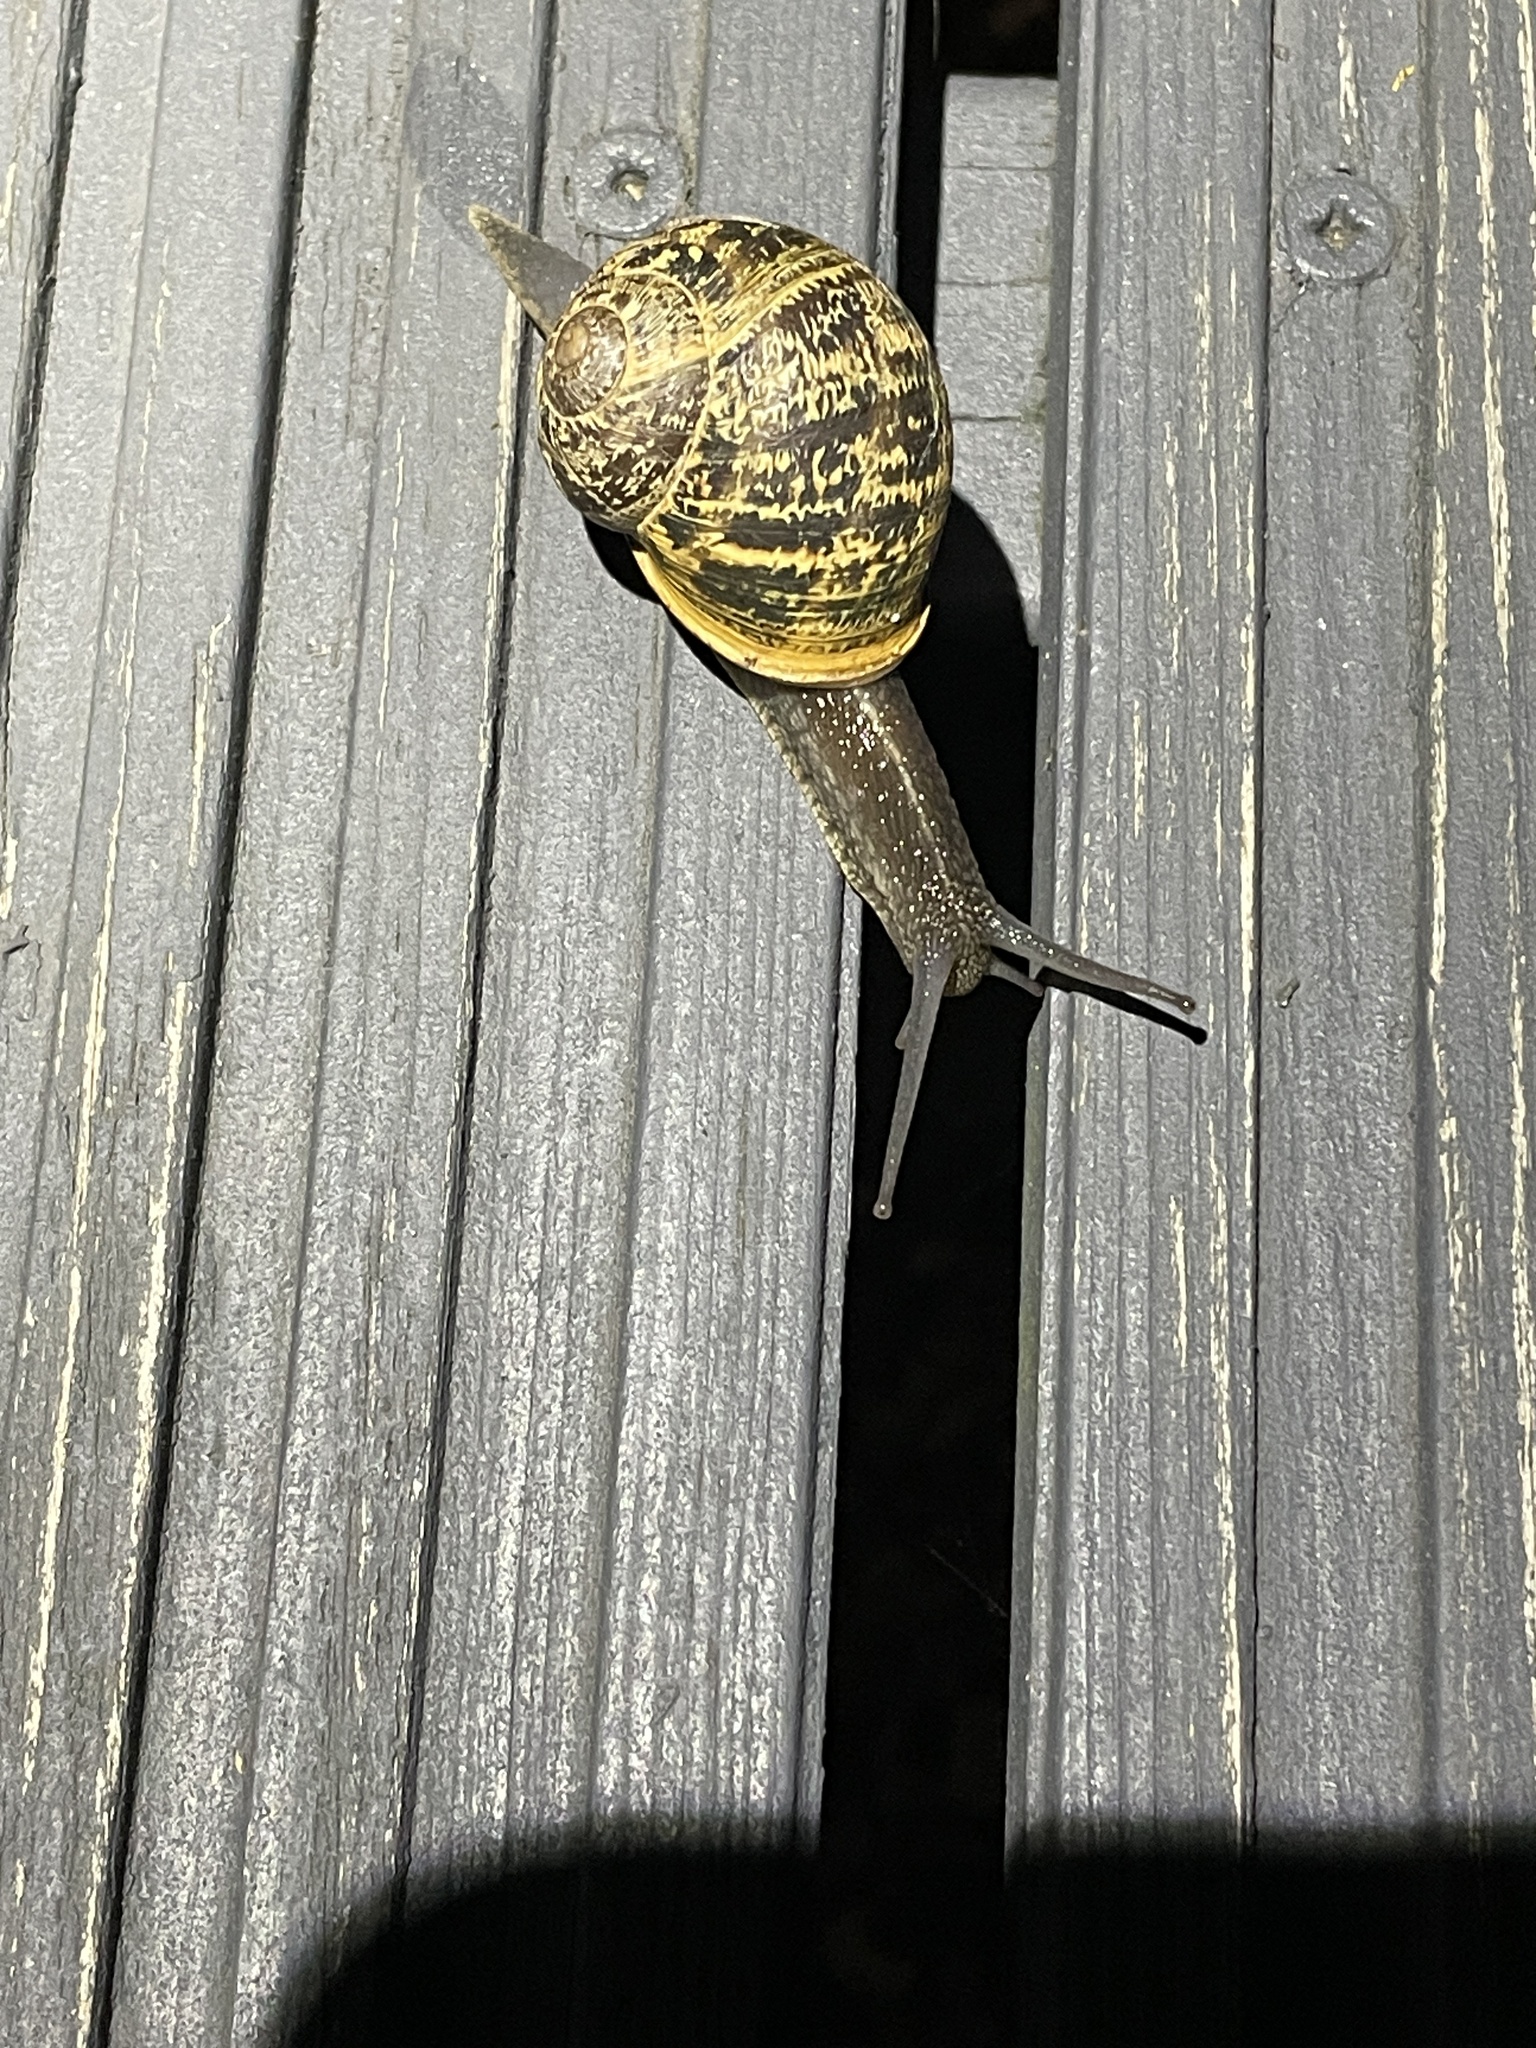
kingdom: Animalia
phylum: Mollusca
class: Gastropoda
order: Stylommatophora
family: Helicidae
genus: Cornu
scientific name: Cornu aspersum
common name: Brown garden snail
